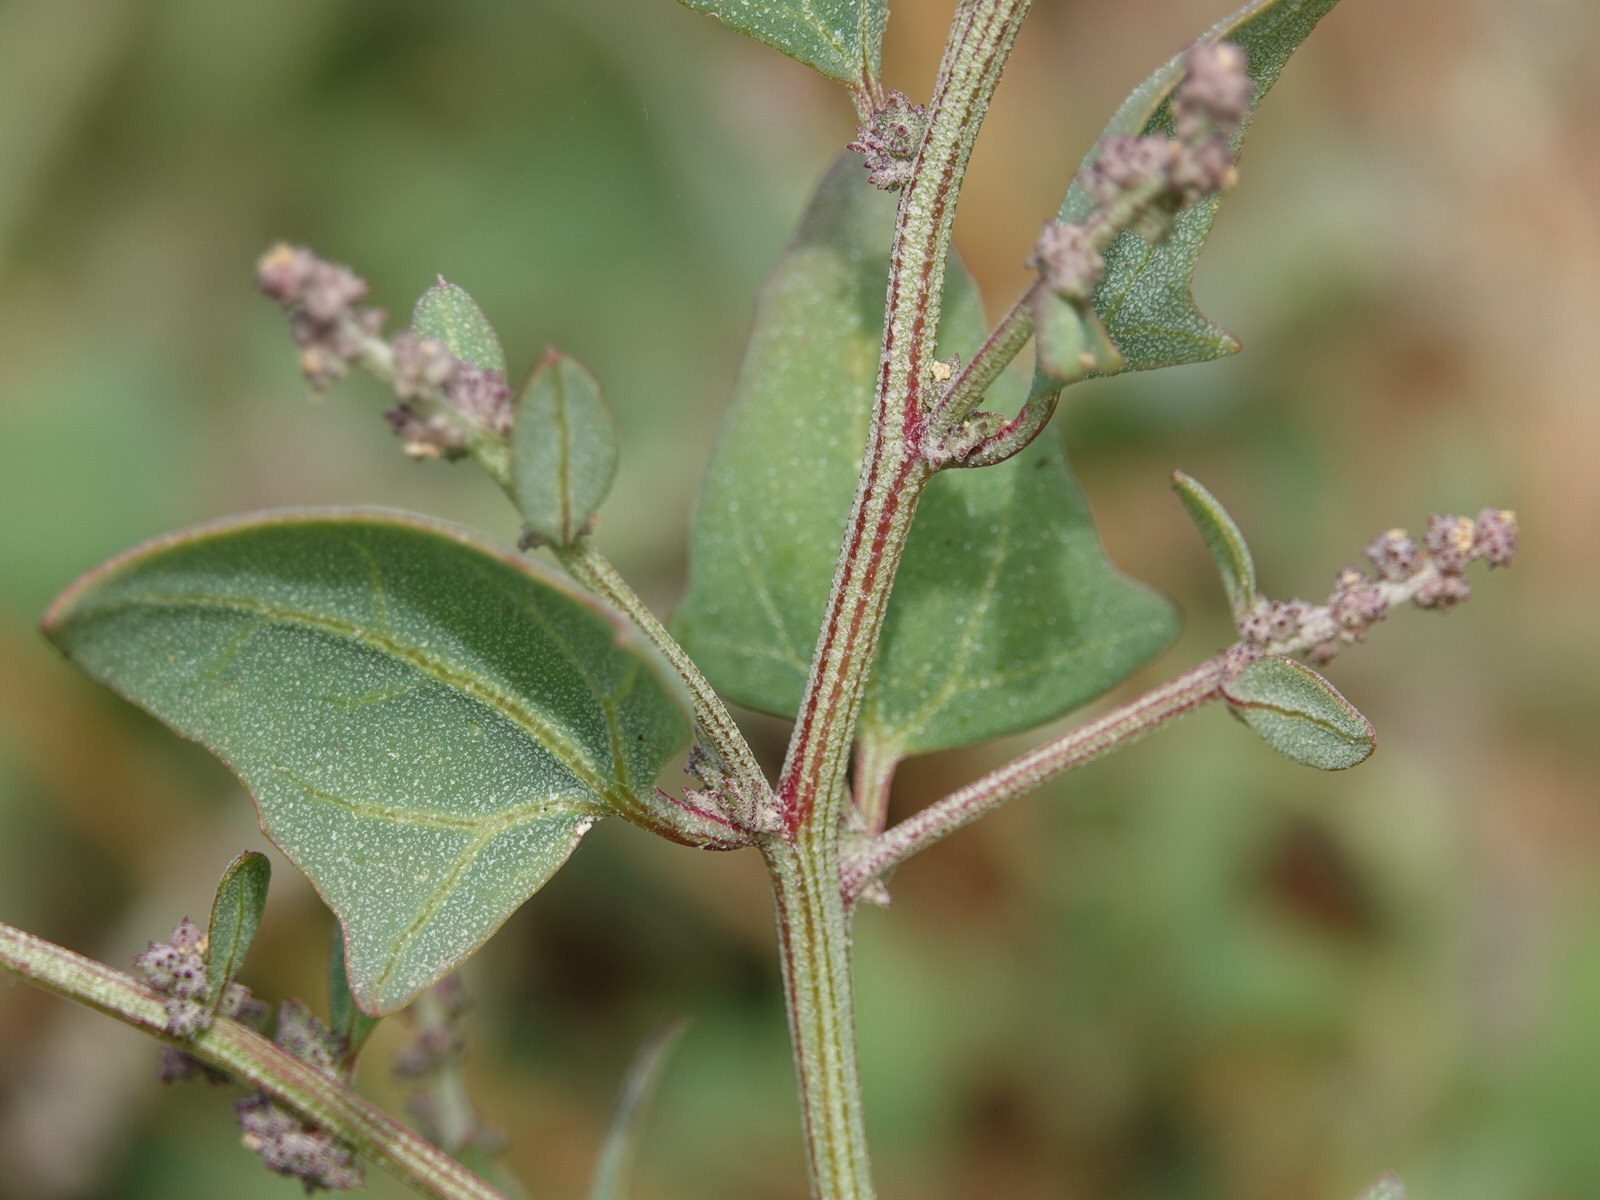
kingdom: Plantae
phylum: Tracheophyta
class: Magnoliopsida
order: Caryophyllales
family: Amaranthaceae
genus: Atriplex
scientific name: Atriplex prostrata
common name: Spear-leaved orache
